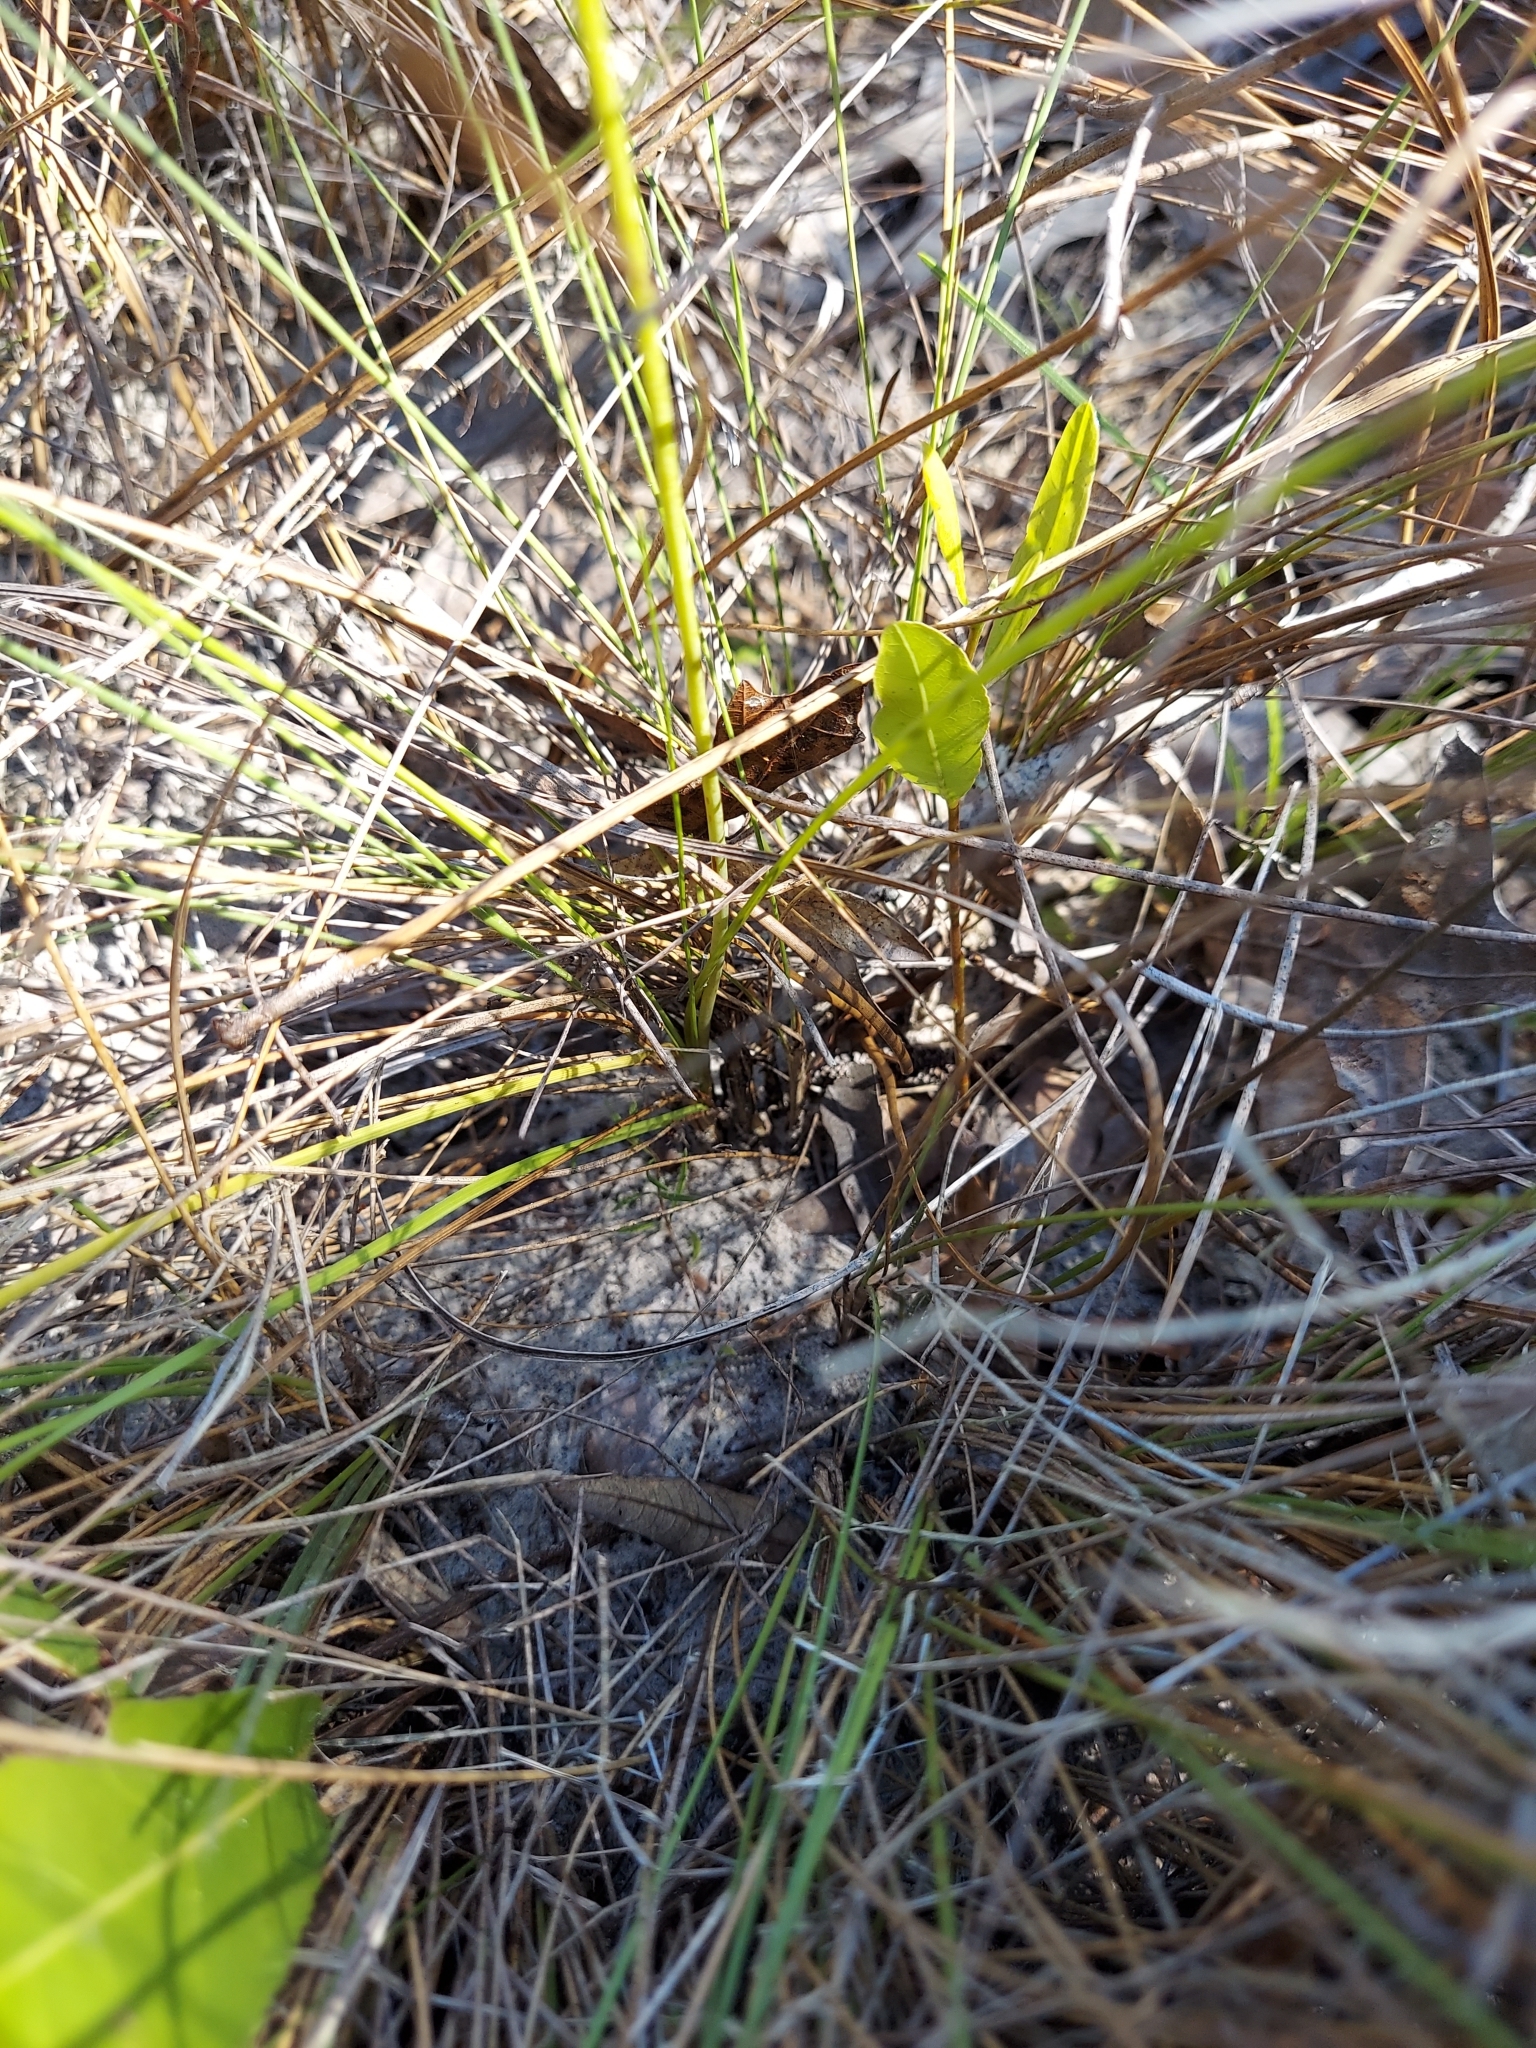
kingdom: Plantae
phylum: Tracheophyta
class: Liliopsida
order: Liliales
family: Melanthiaceae
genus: Schoenocaulon
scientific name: Schoenocaulon dubium
